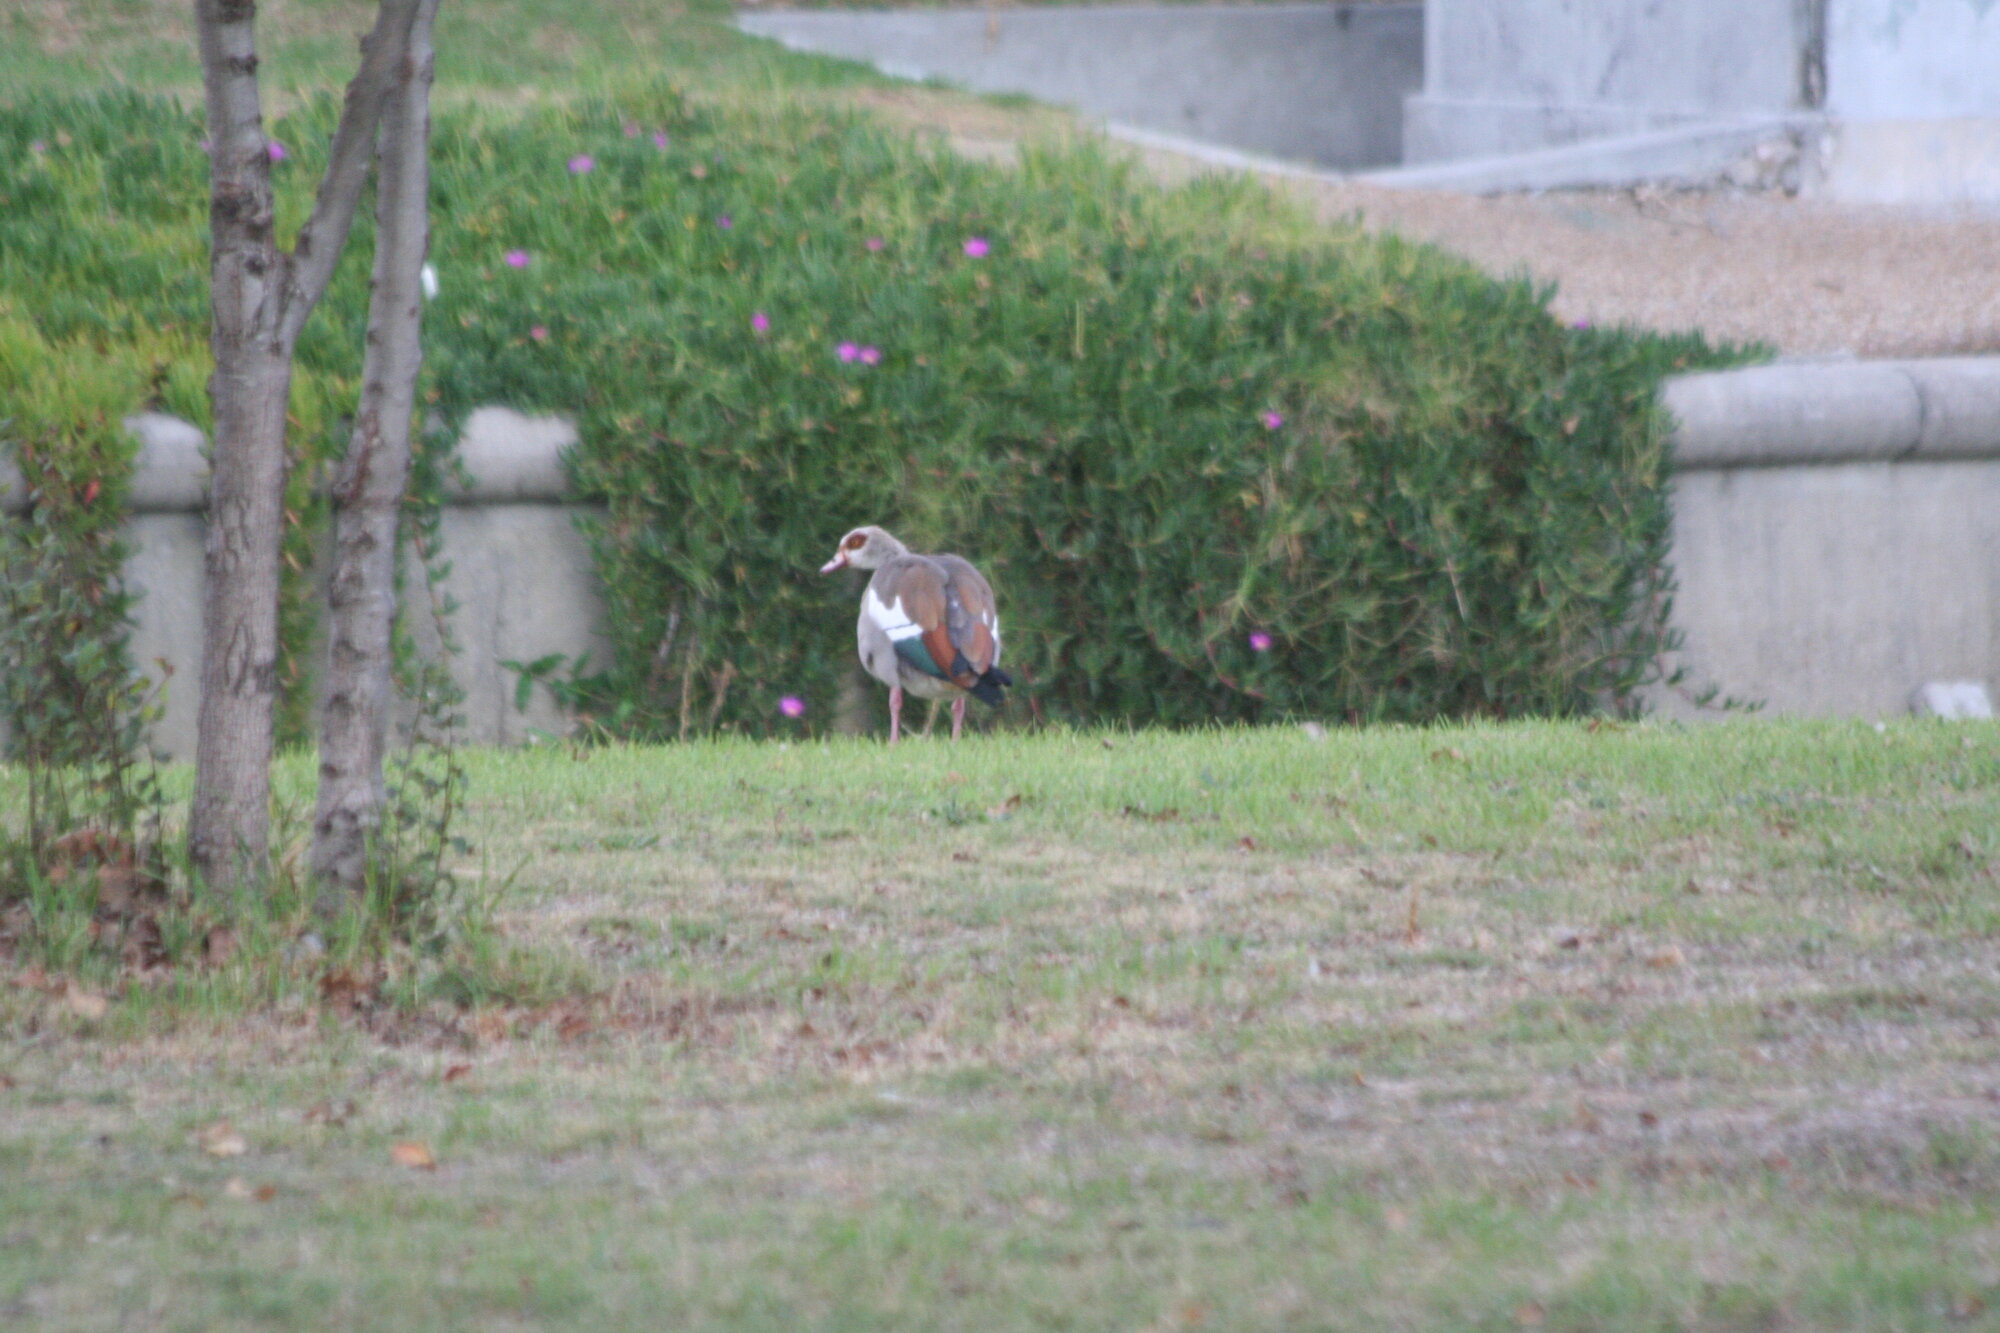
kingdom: Animalia
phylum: Chordata
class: Aves
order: Anseriformes
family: Anatidae
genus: Alopochen
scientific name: Alopochen aegyptiaca
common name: Egyptian goose
